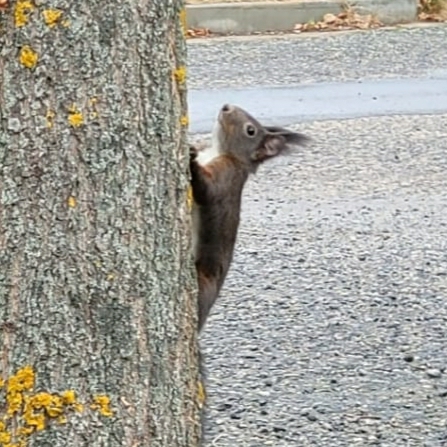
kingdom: Animalia
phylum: Chordata
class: Mammalia
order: Rodentia
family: Sciuridae
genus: Sciurus
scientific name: Sciurus vulgaris
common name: Eurasian red squirrel
